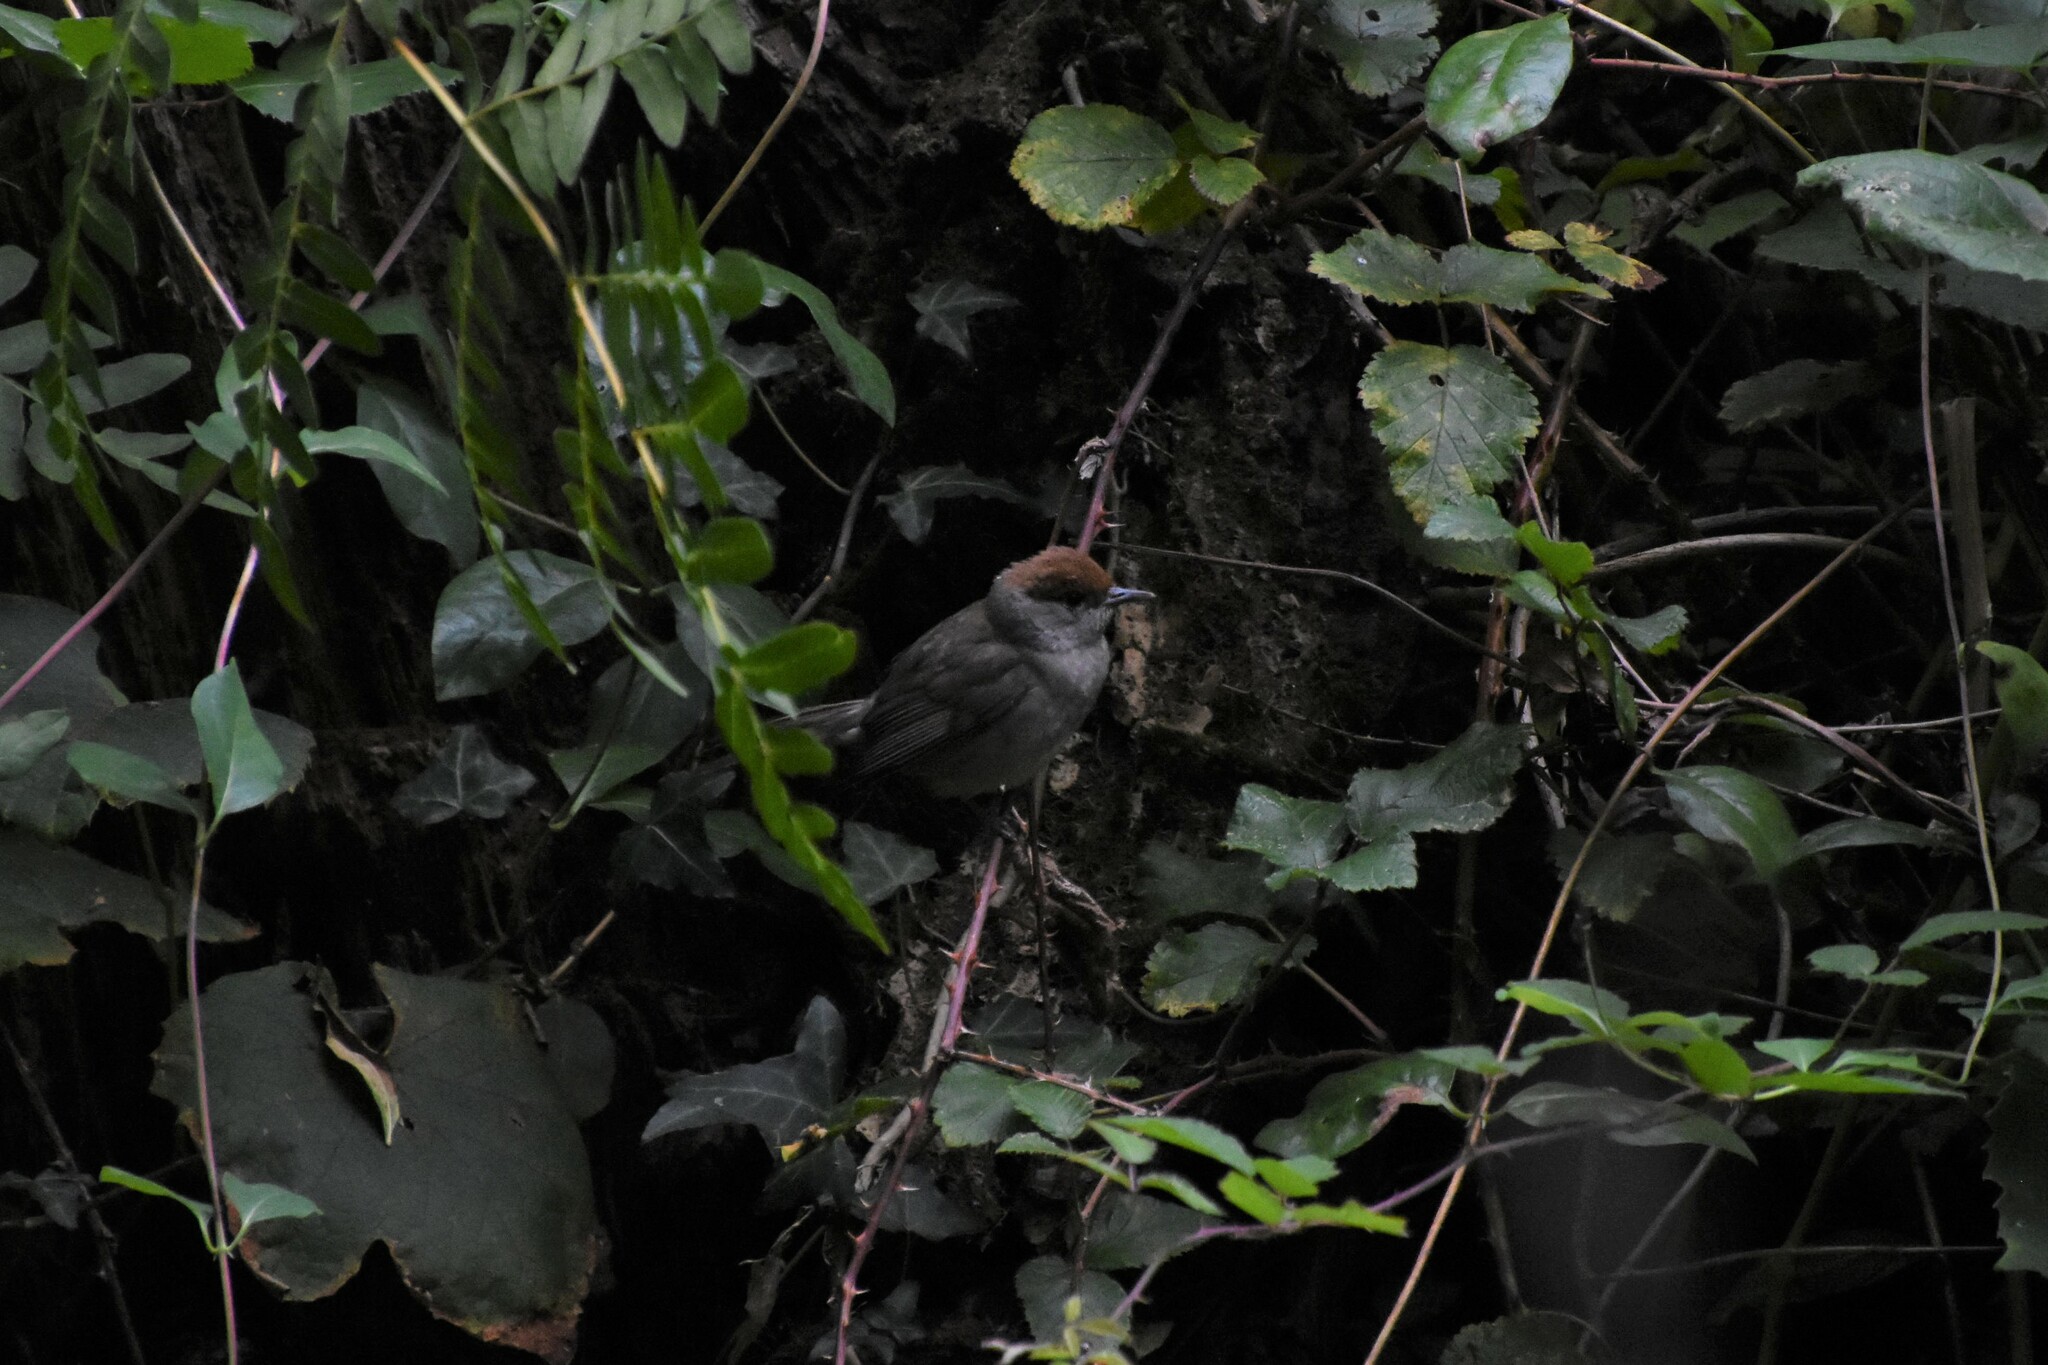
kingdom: Animalia
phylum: Chordata
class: Aves
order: Passeriformes
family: Sylviidae
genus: Sylvia
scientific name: Sylvia atricapilla
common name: Eurasian blackcap
